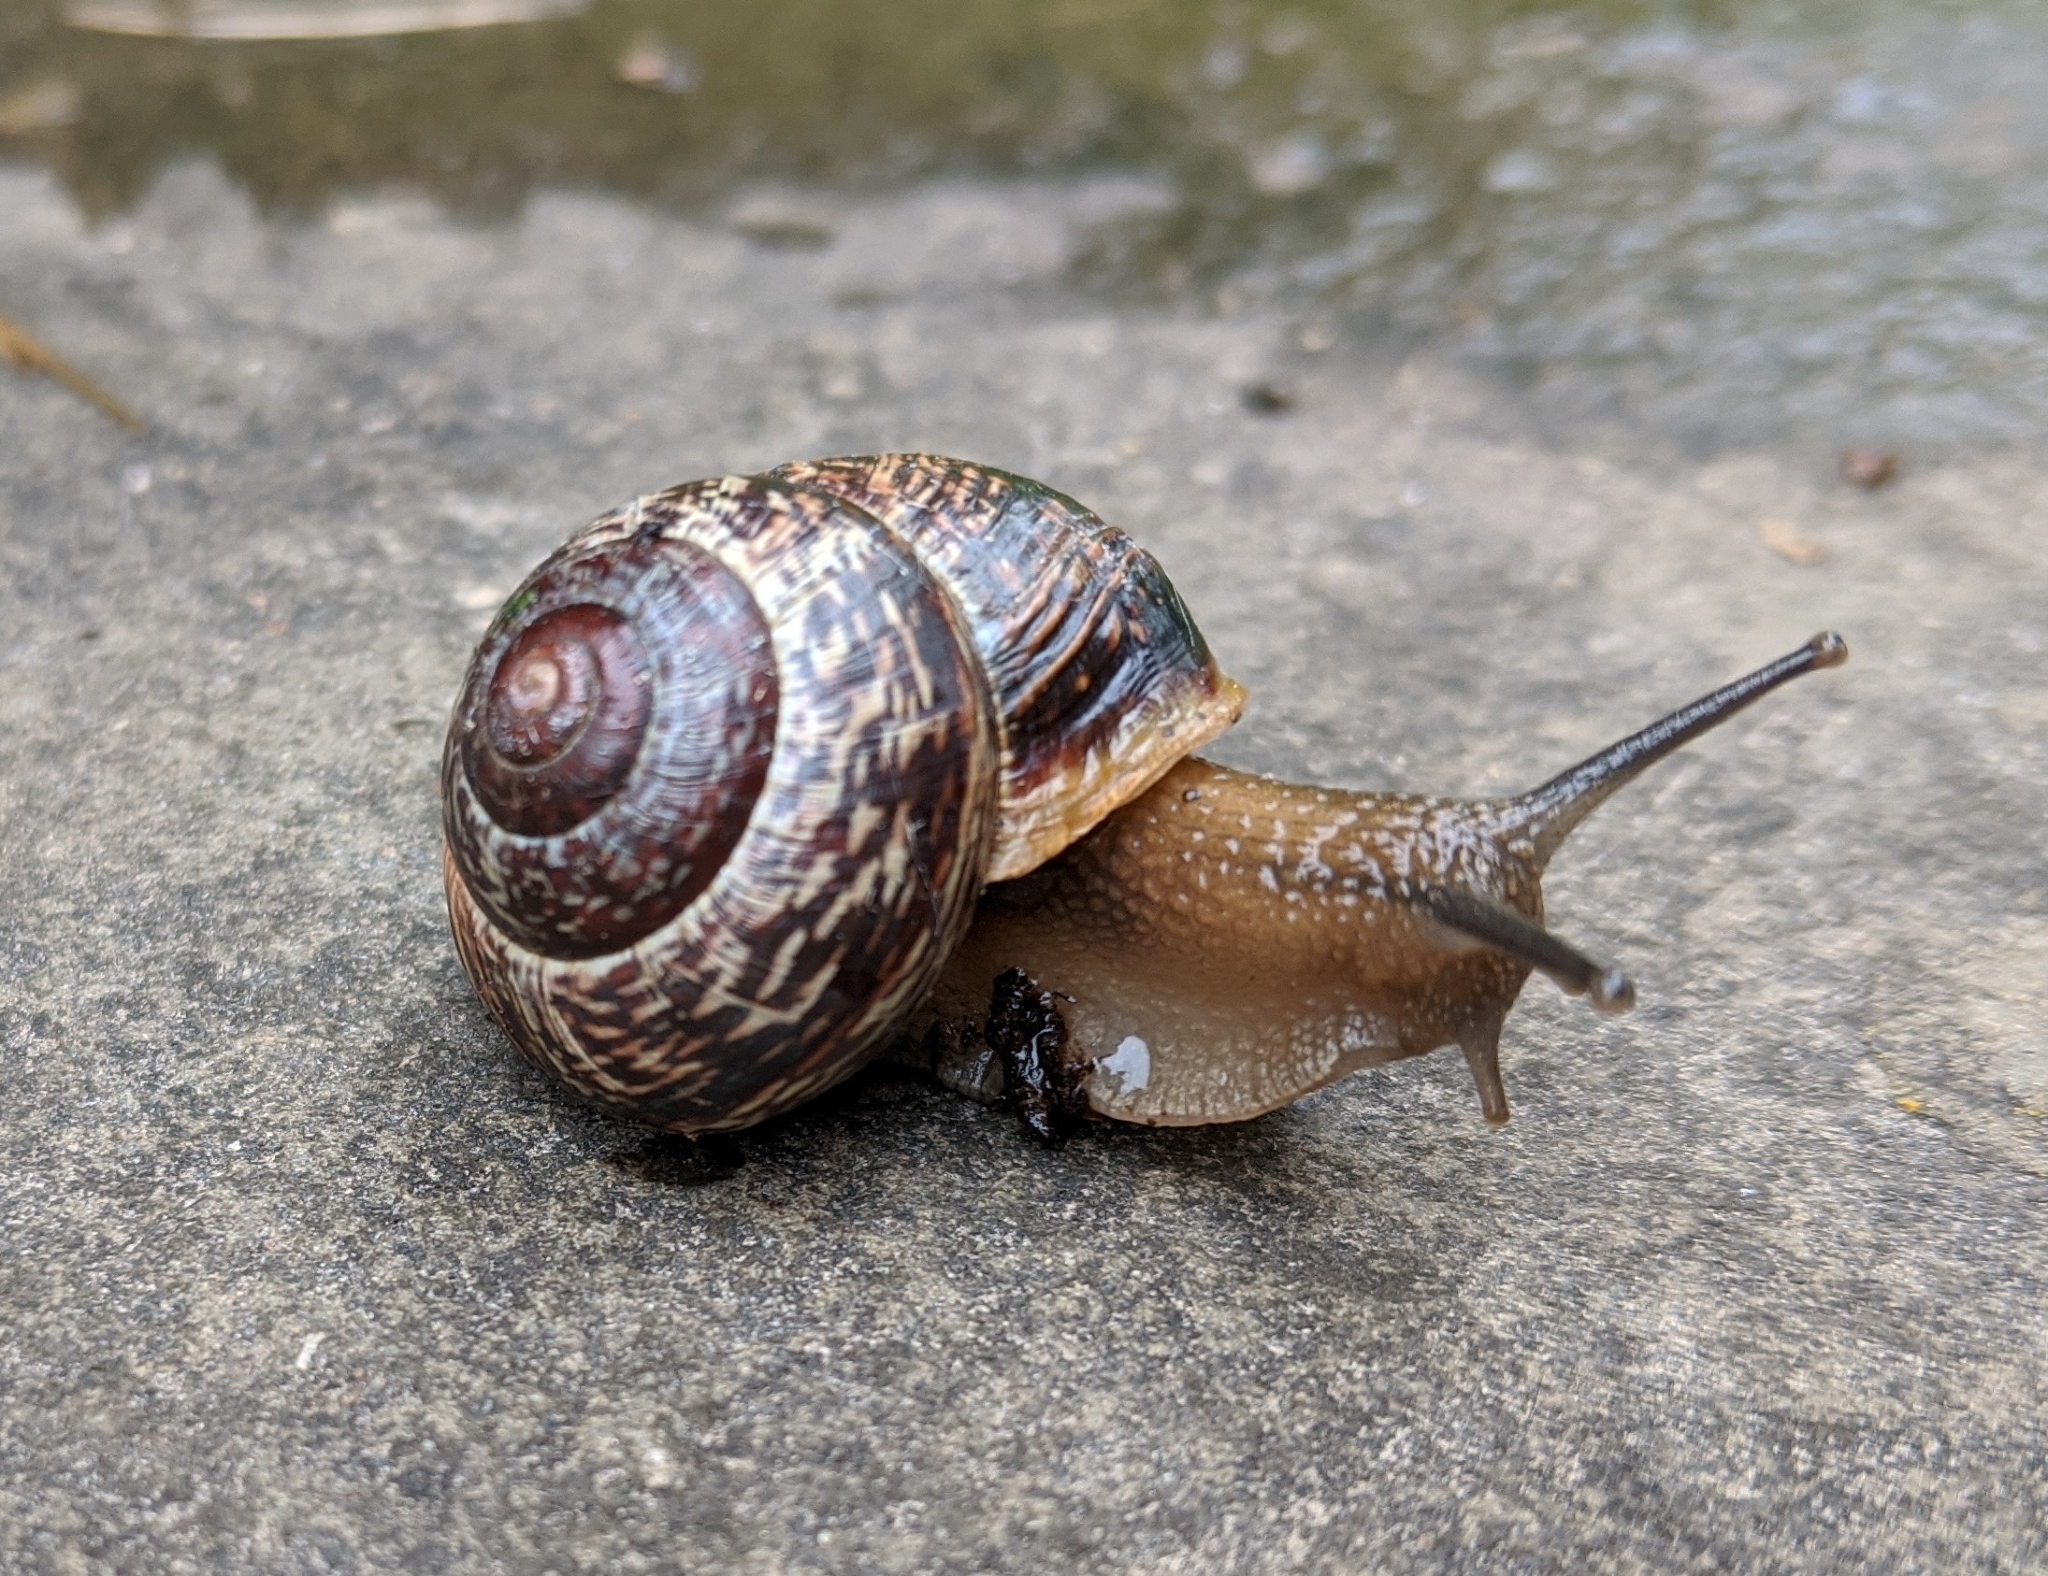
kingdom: Animalia
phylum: Mollusca
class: Gastropoda
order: Stylommatophora
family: Helicidae
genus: Arianta
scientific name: Arianta arbustorum
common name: Copse snail
